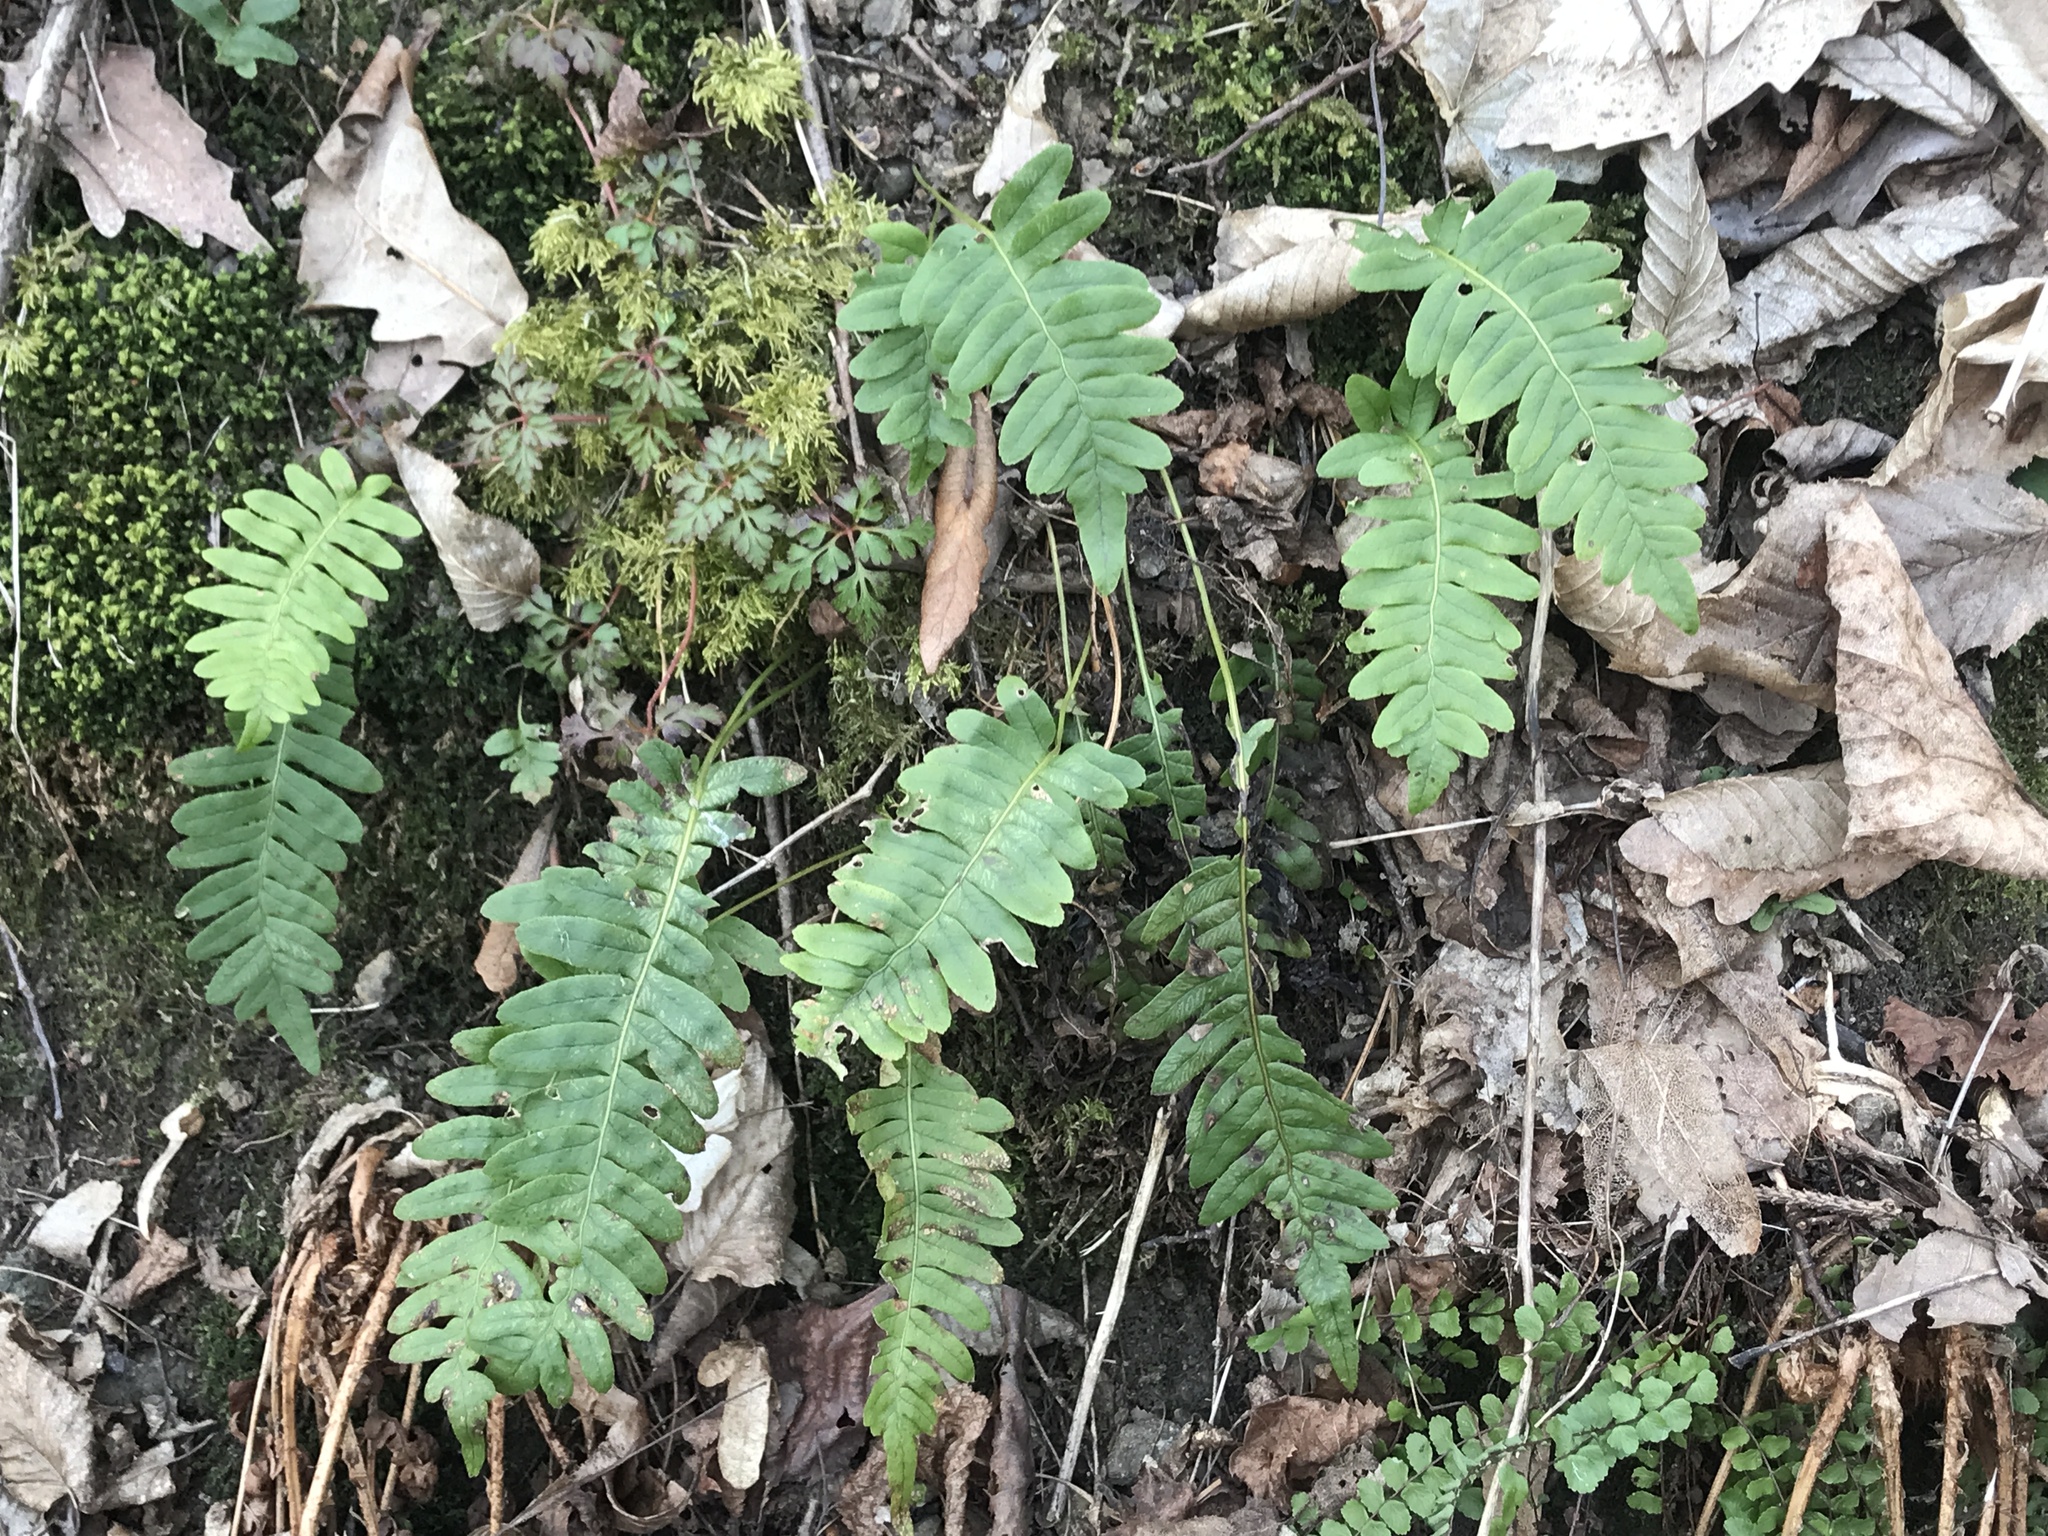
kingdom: Plantae
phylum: Tracheophyta
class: Polypodiopsida
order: Polypodiales
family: Polypodiaceae
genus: Polypodium
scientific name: Polypodium vulgare
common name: Common polypody
